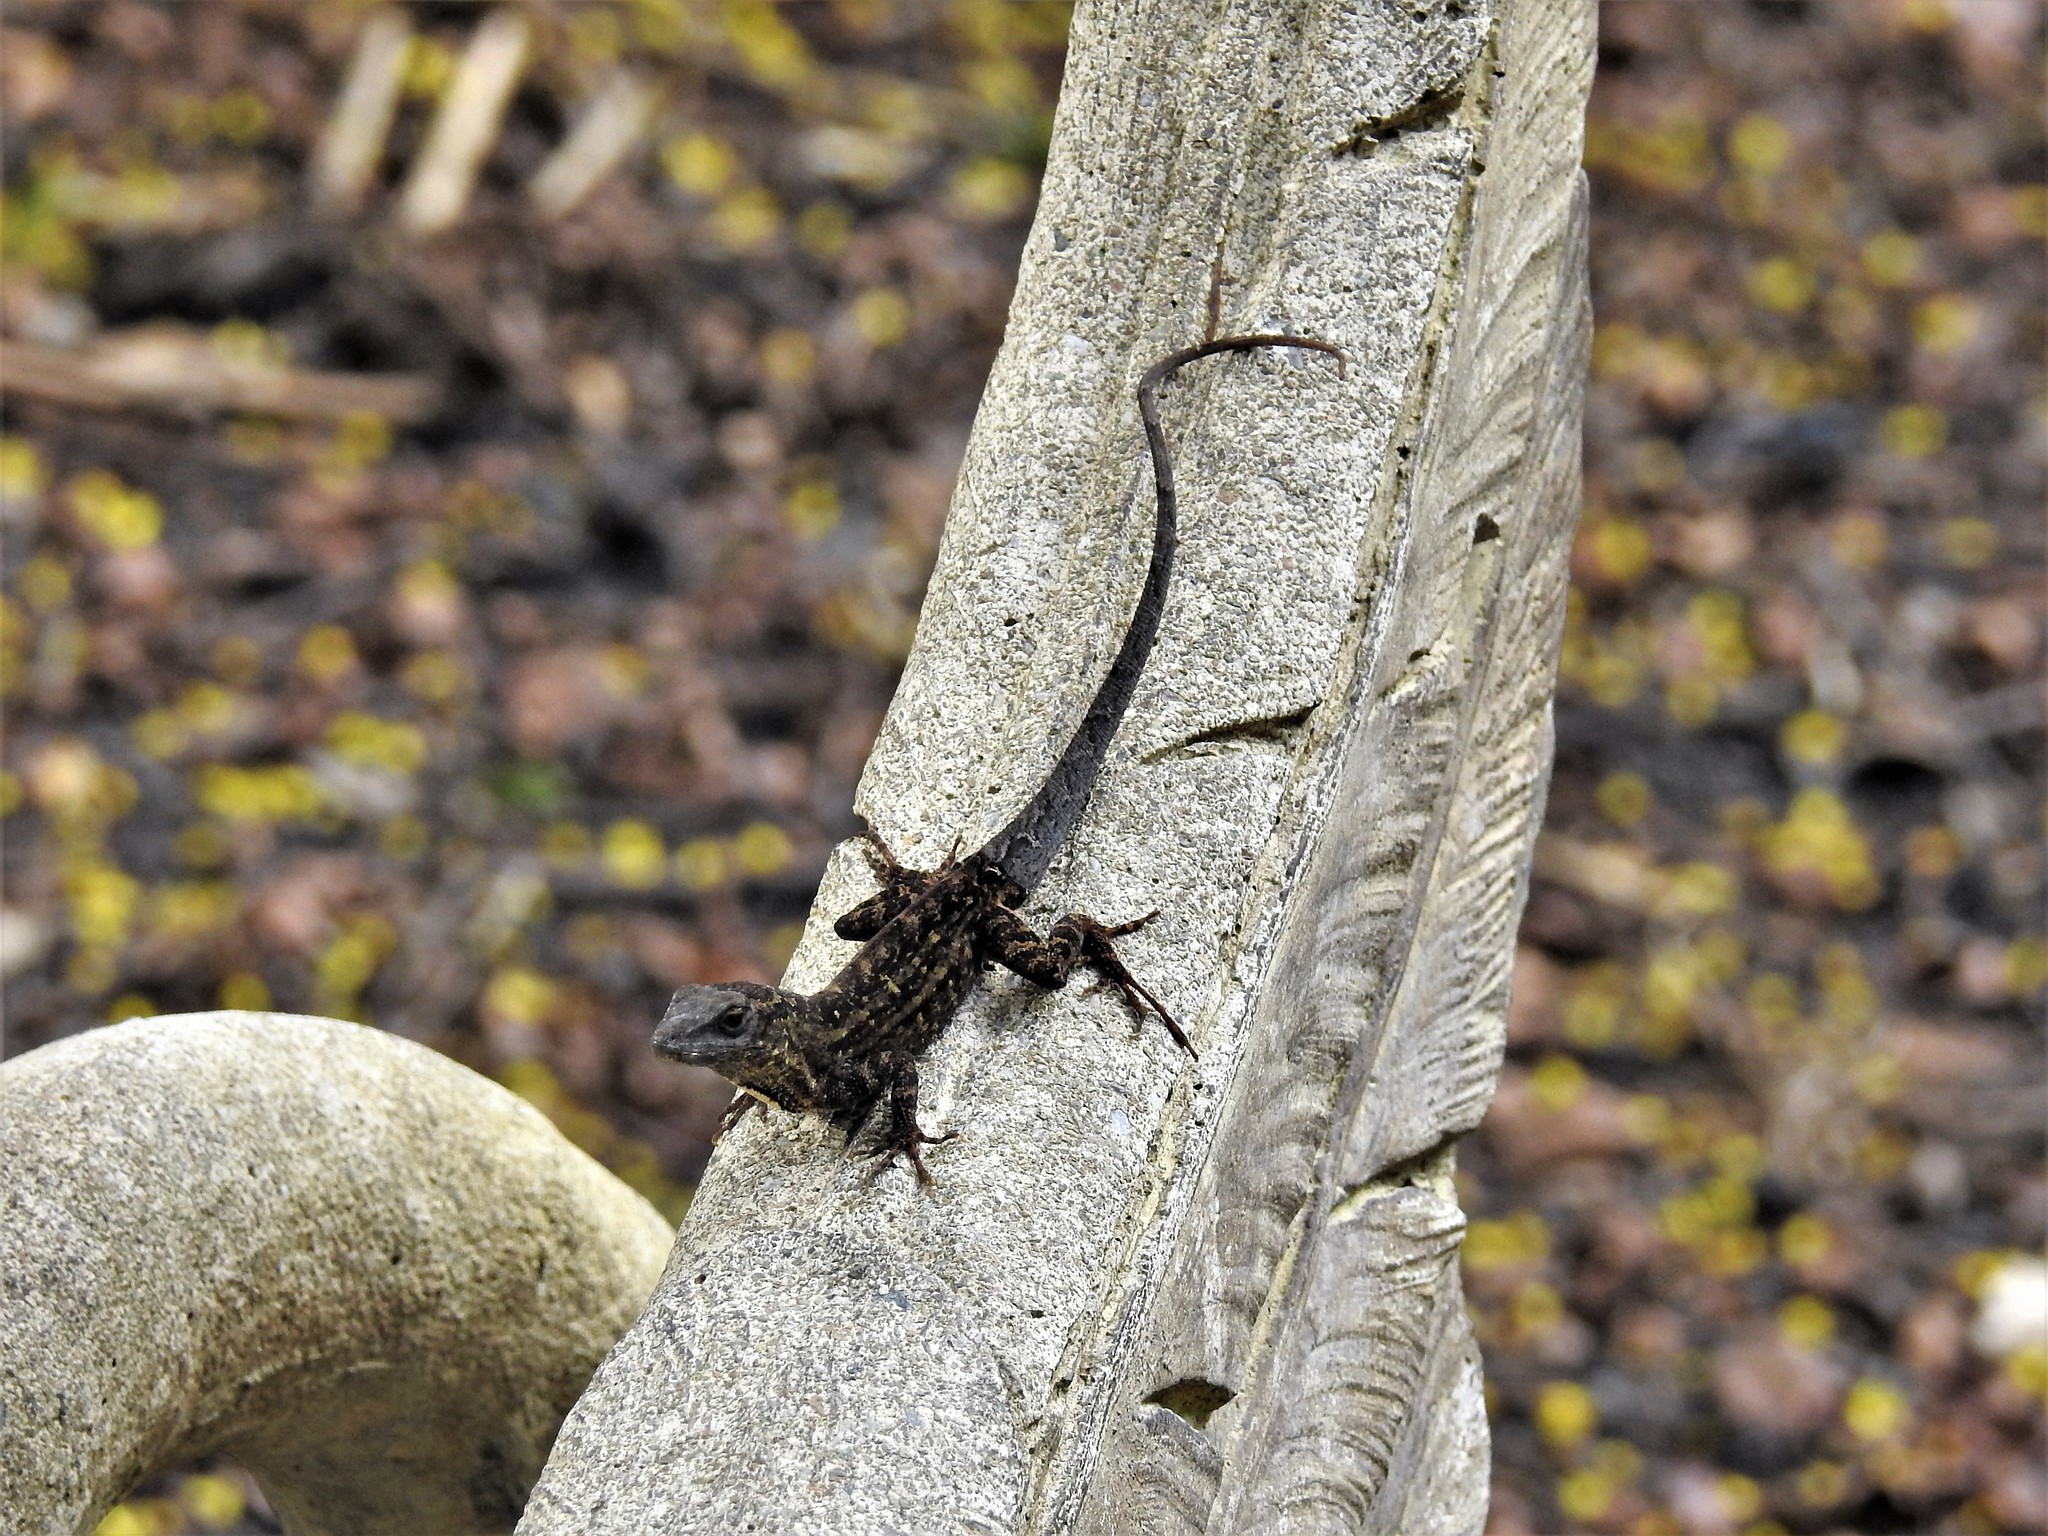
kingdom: Animalia
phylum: Chordata
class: Squamata
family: Dactyloidae
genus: Anolis
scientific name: Anolis sagrei
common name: Brown anole
